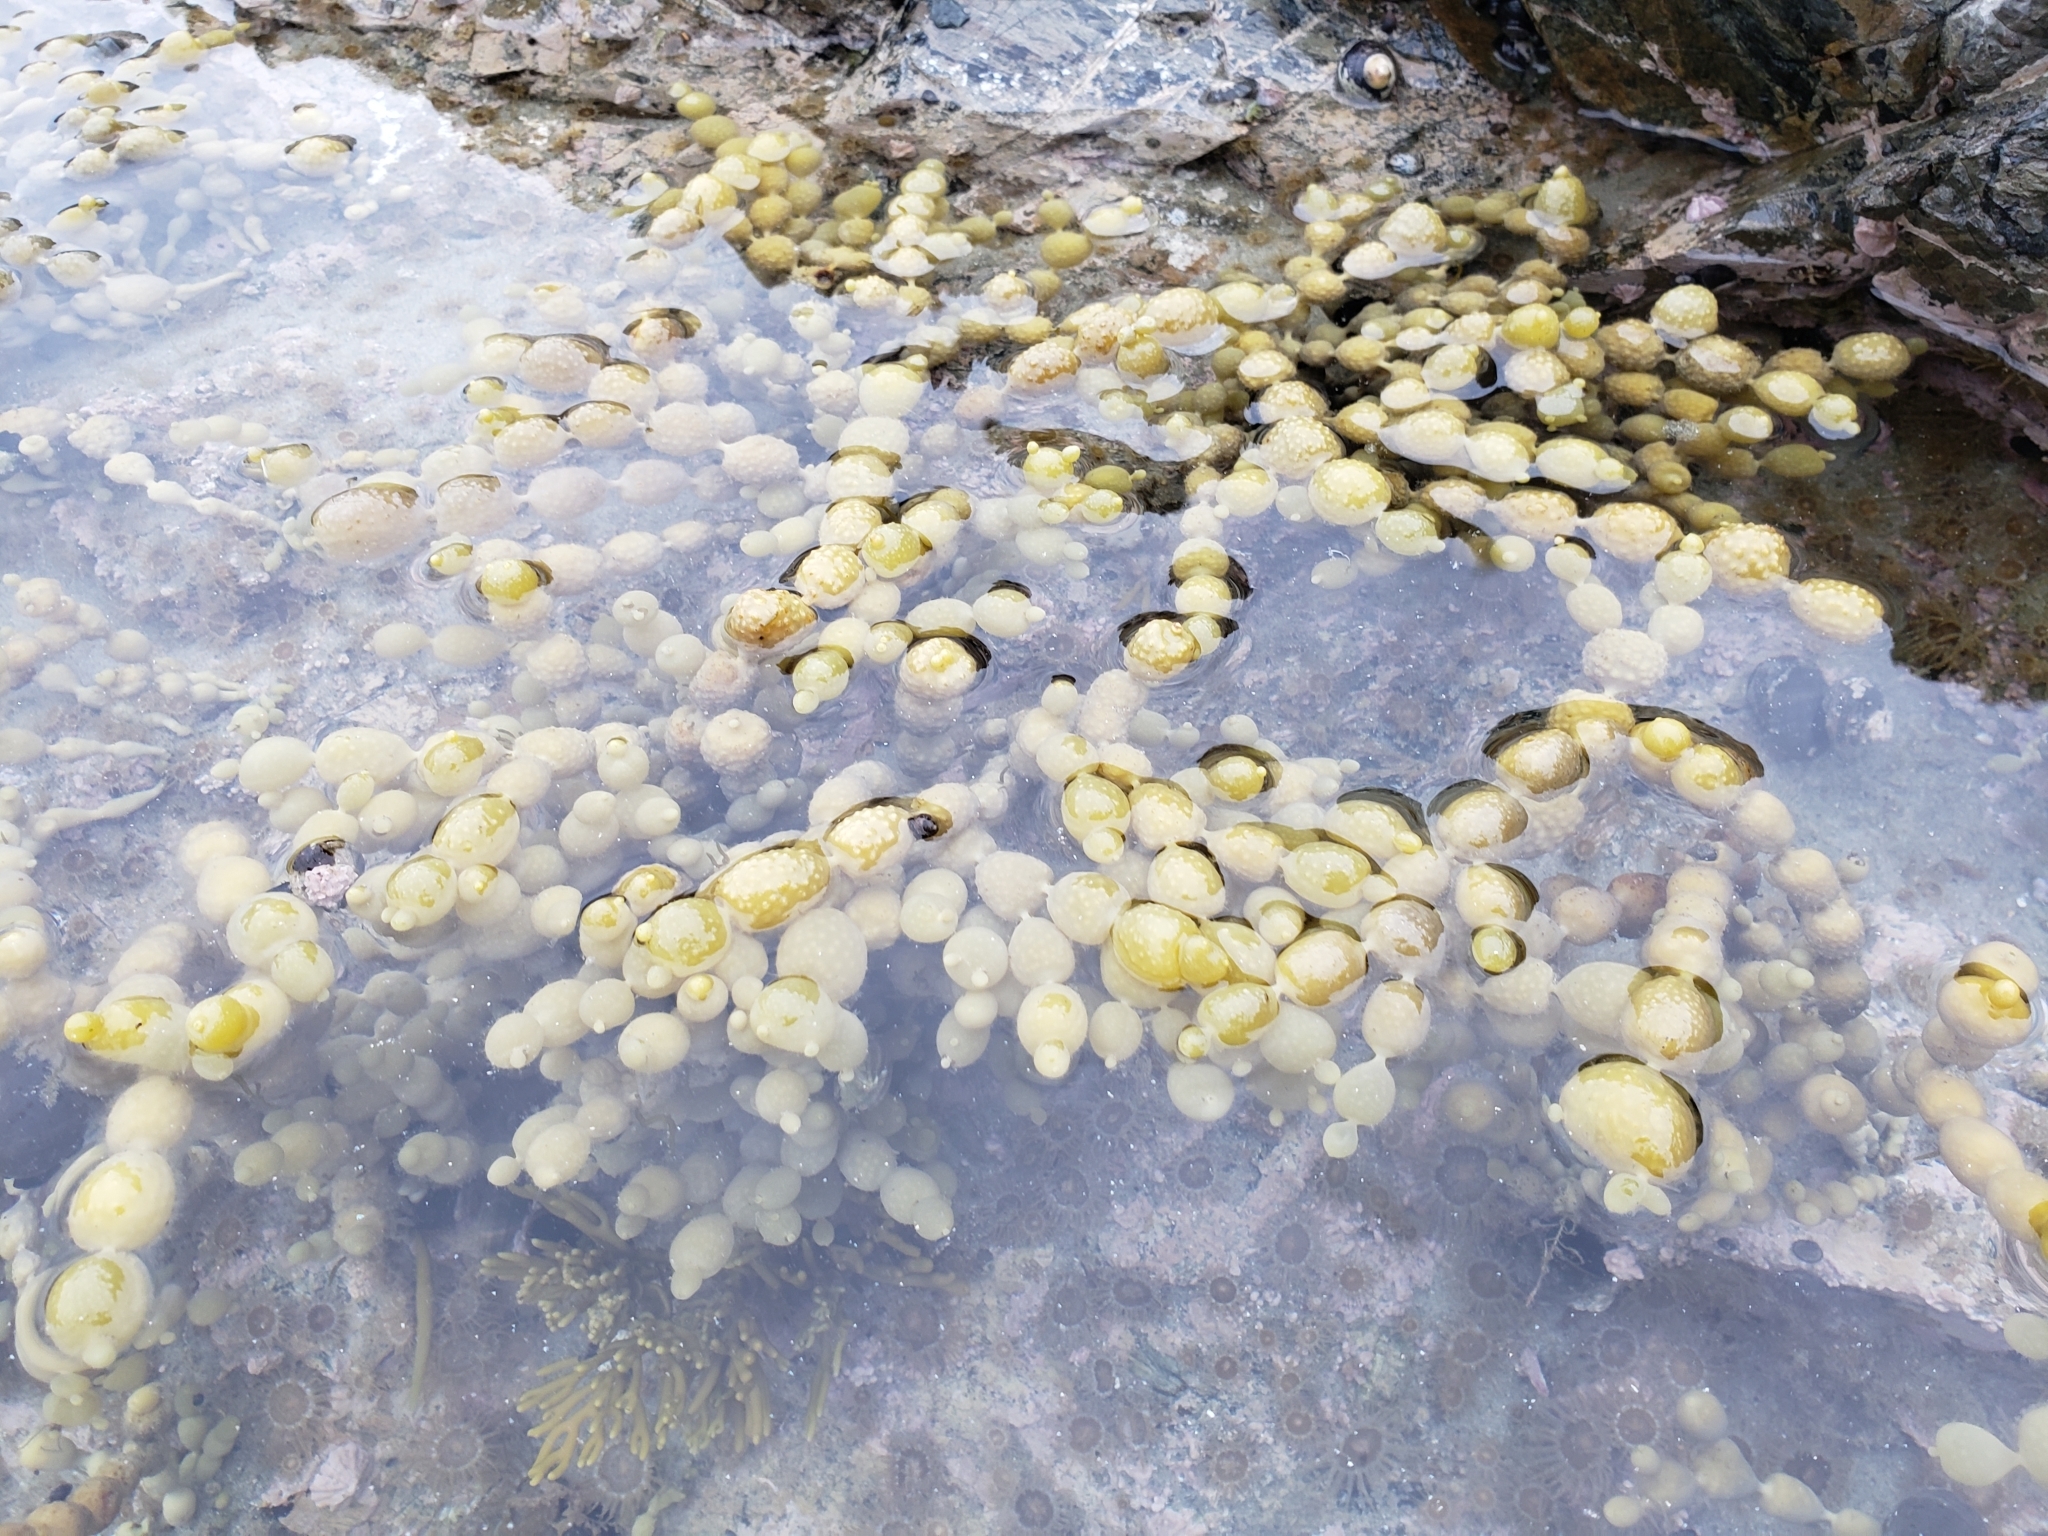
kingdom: Chromista
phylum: Ochrophyta
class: Phaeophyceae
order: Fucales
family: Hormosiraceae
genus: Hormosira
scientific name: Hormosira banksii
